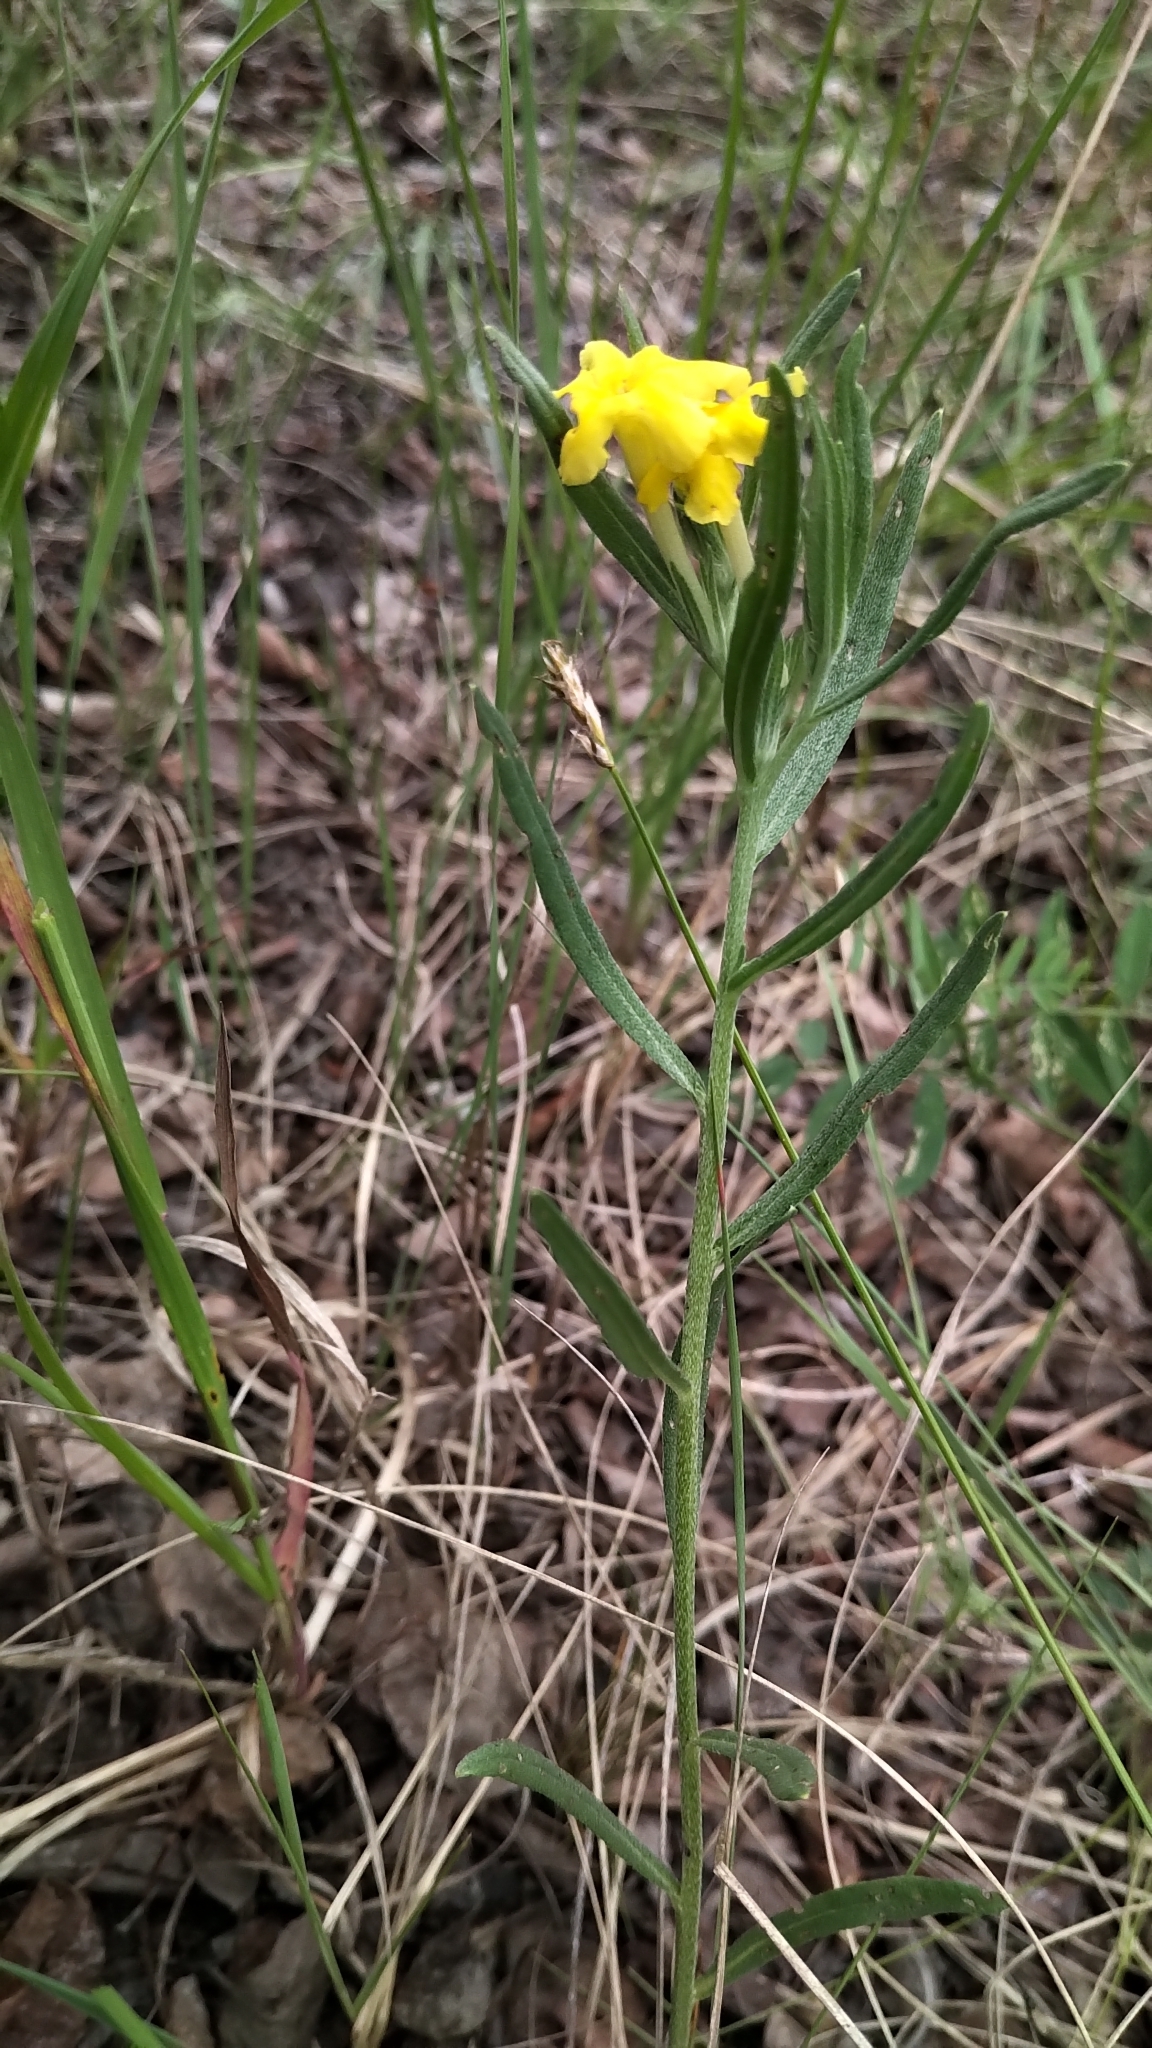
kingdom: Plantae
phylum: Tracheophyta
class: Magnoliopsida
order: Boraginales
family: Boraginaceae
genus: Lithospermum
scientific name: Lithospermum incisum
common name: Fringed gromwell
